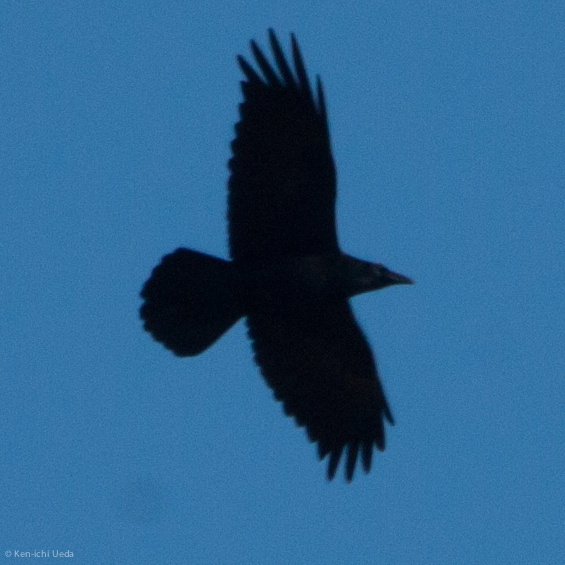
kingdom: Animalia
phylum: Chordata
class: Aves
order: Passeriformes
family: Corvidae
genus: Corvus
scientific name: Corvus corax
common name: Common raven
